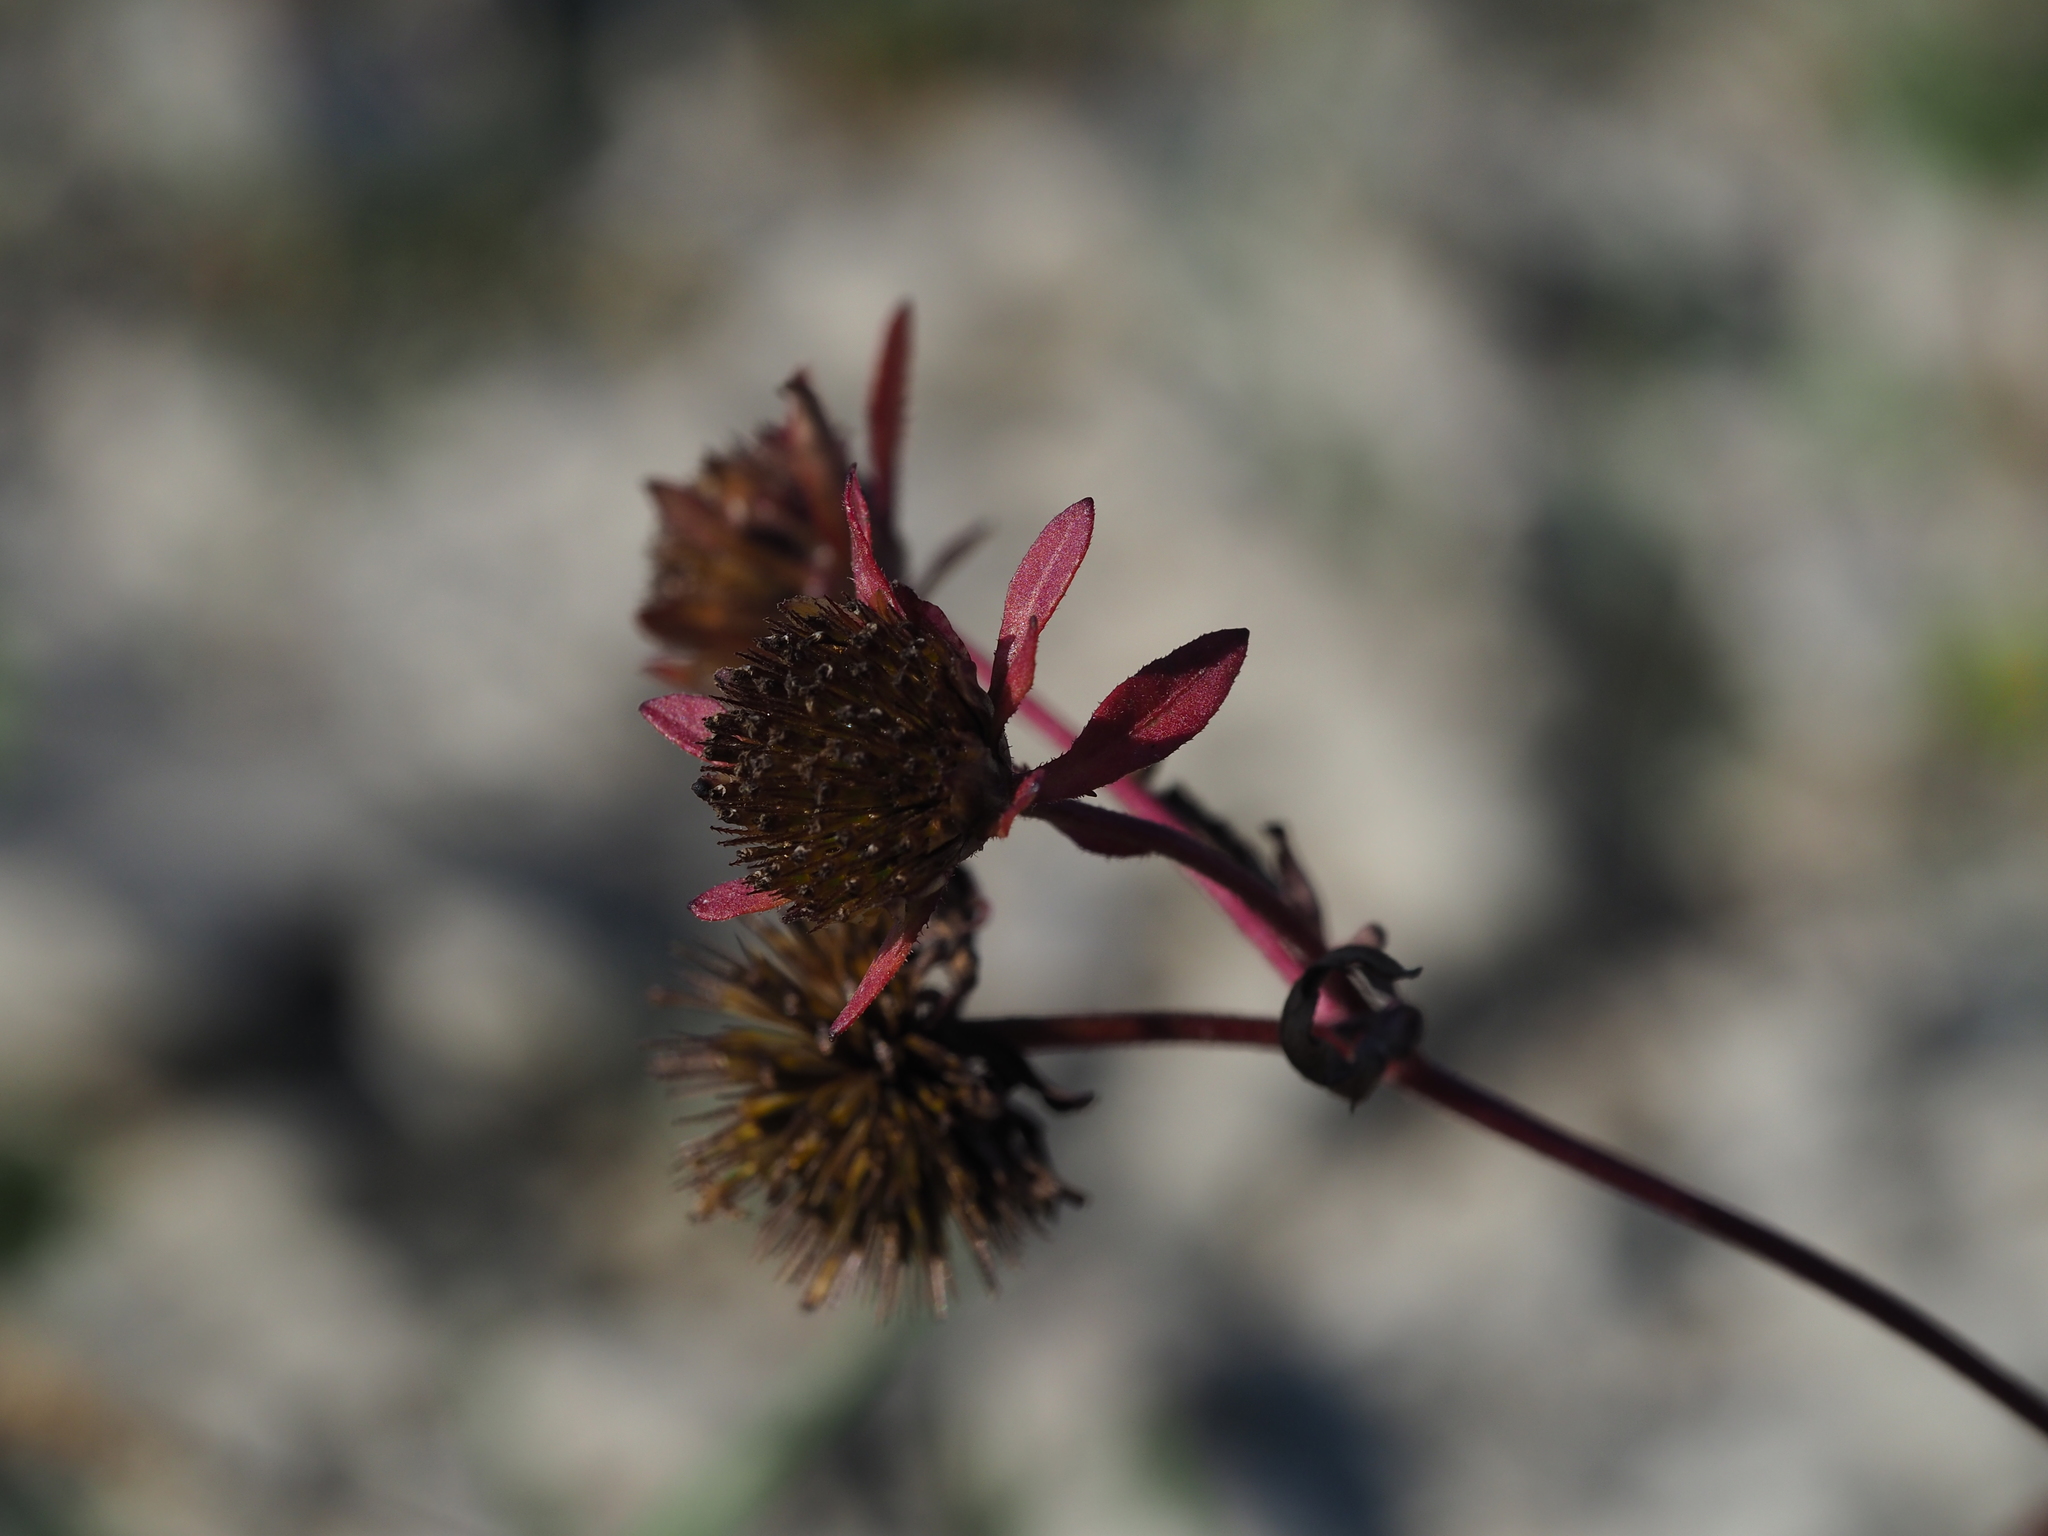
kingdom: Plantae
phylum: Tracheophyta
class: Magnoliopsida
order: Asterales
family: Asteraceae
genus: Bidens
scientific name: Bidens tripartita
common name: Trifid bur-marigold
